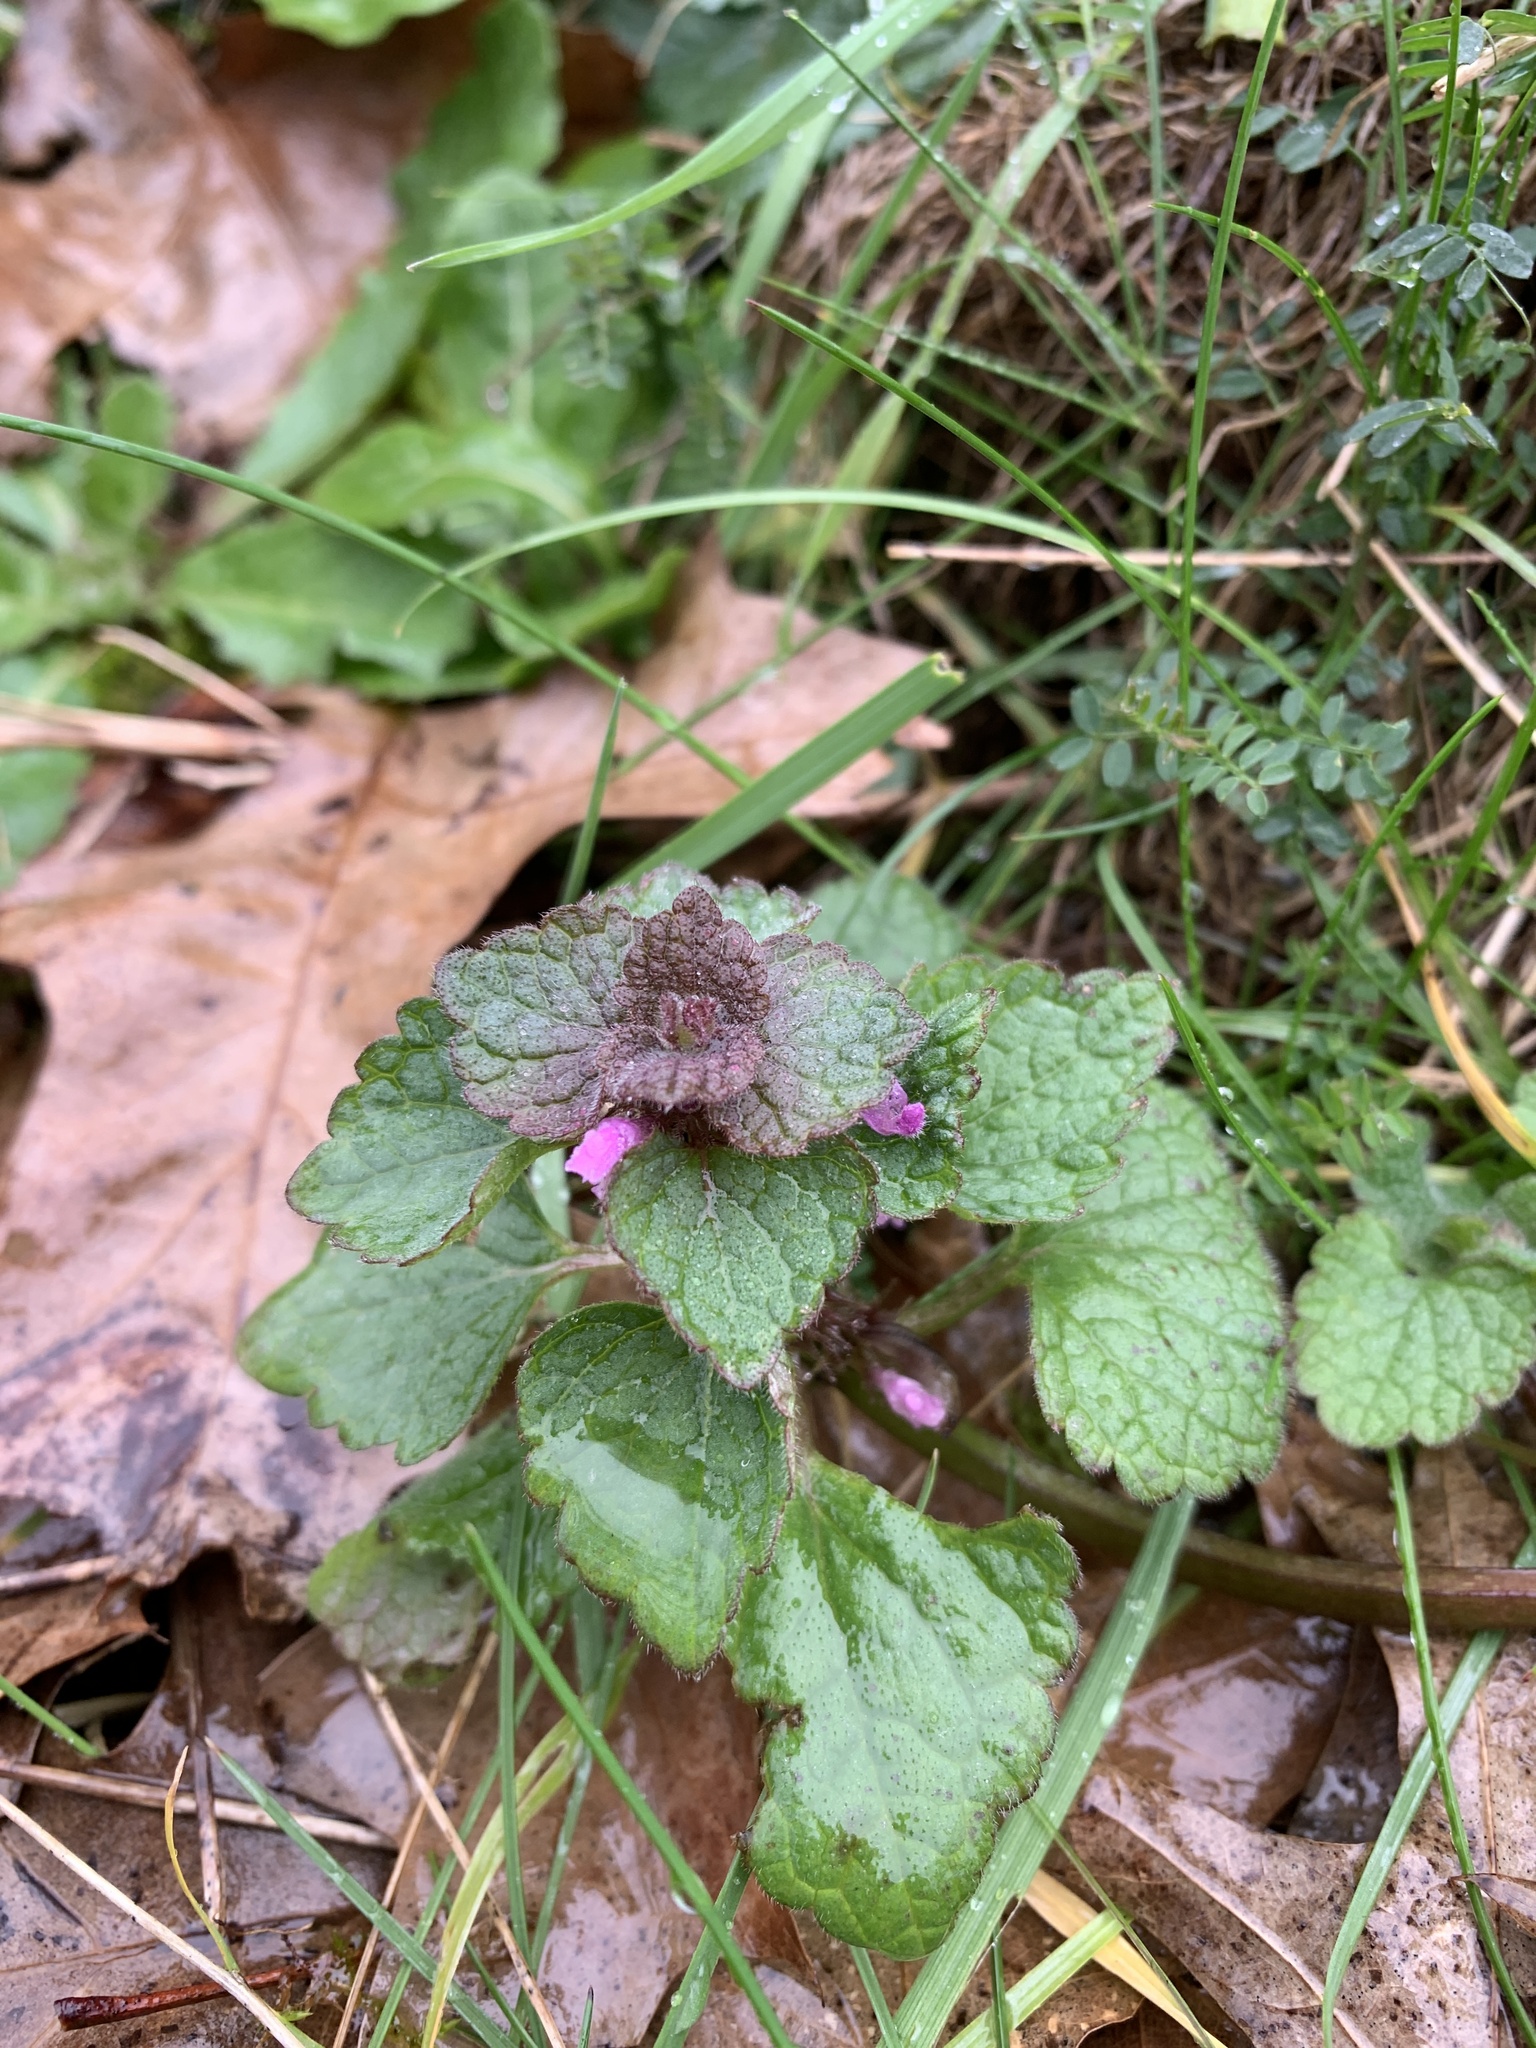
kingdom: Plantae
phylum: Tracheophyta
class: Magnoliopsida
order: Lamiales
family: Lamiaceae
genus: Lamium
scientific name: Lamium purpureum
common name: Red dead-nettle
